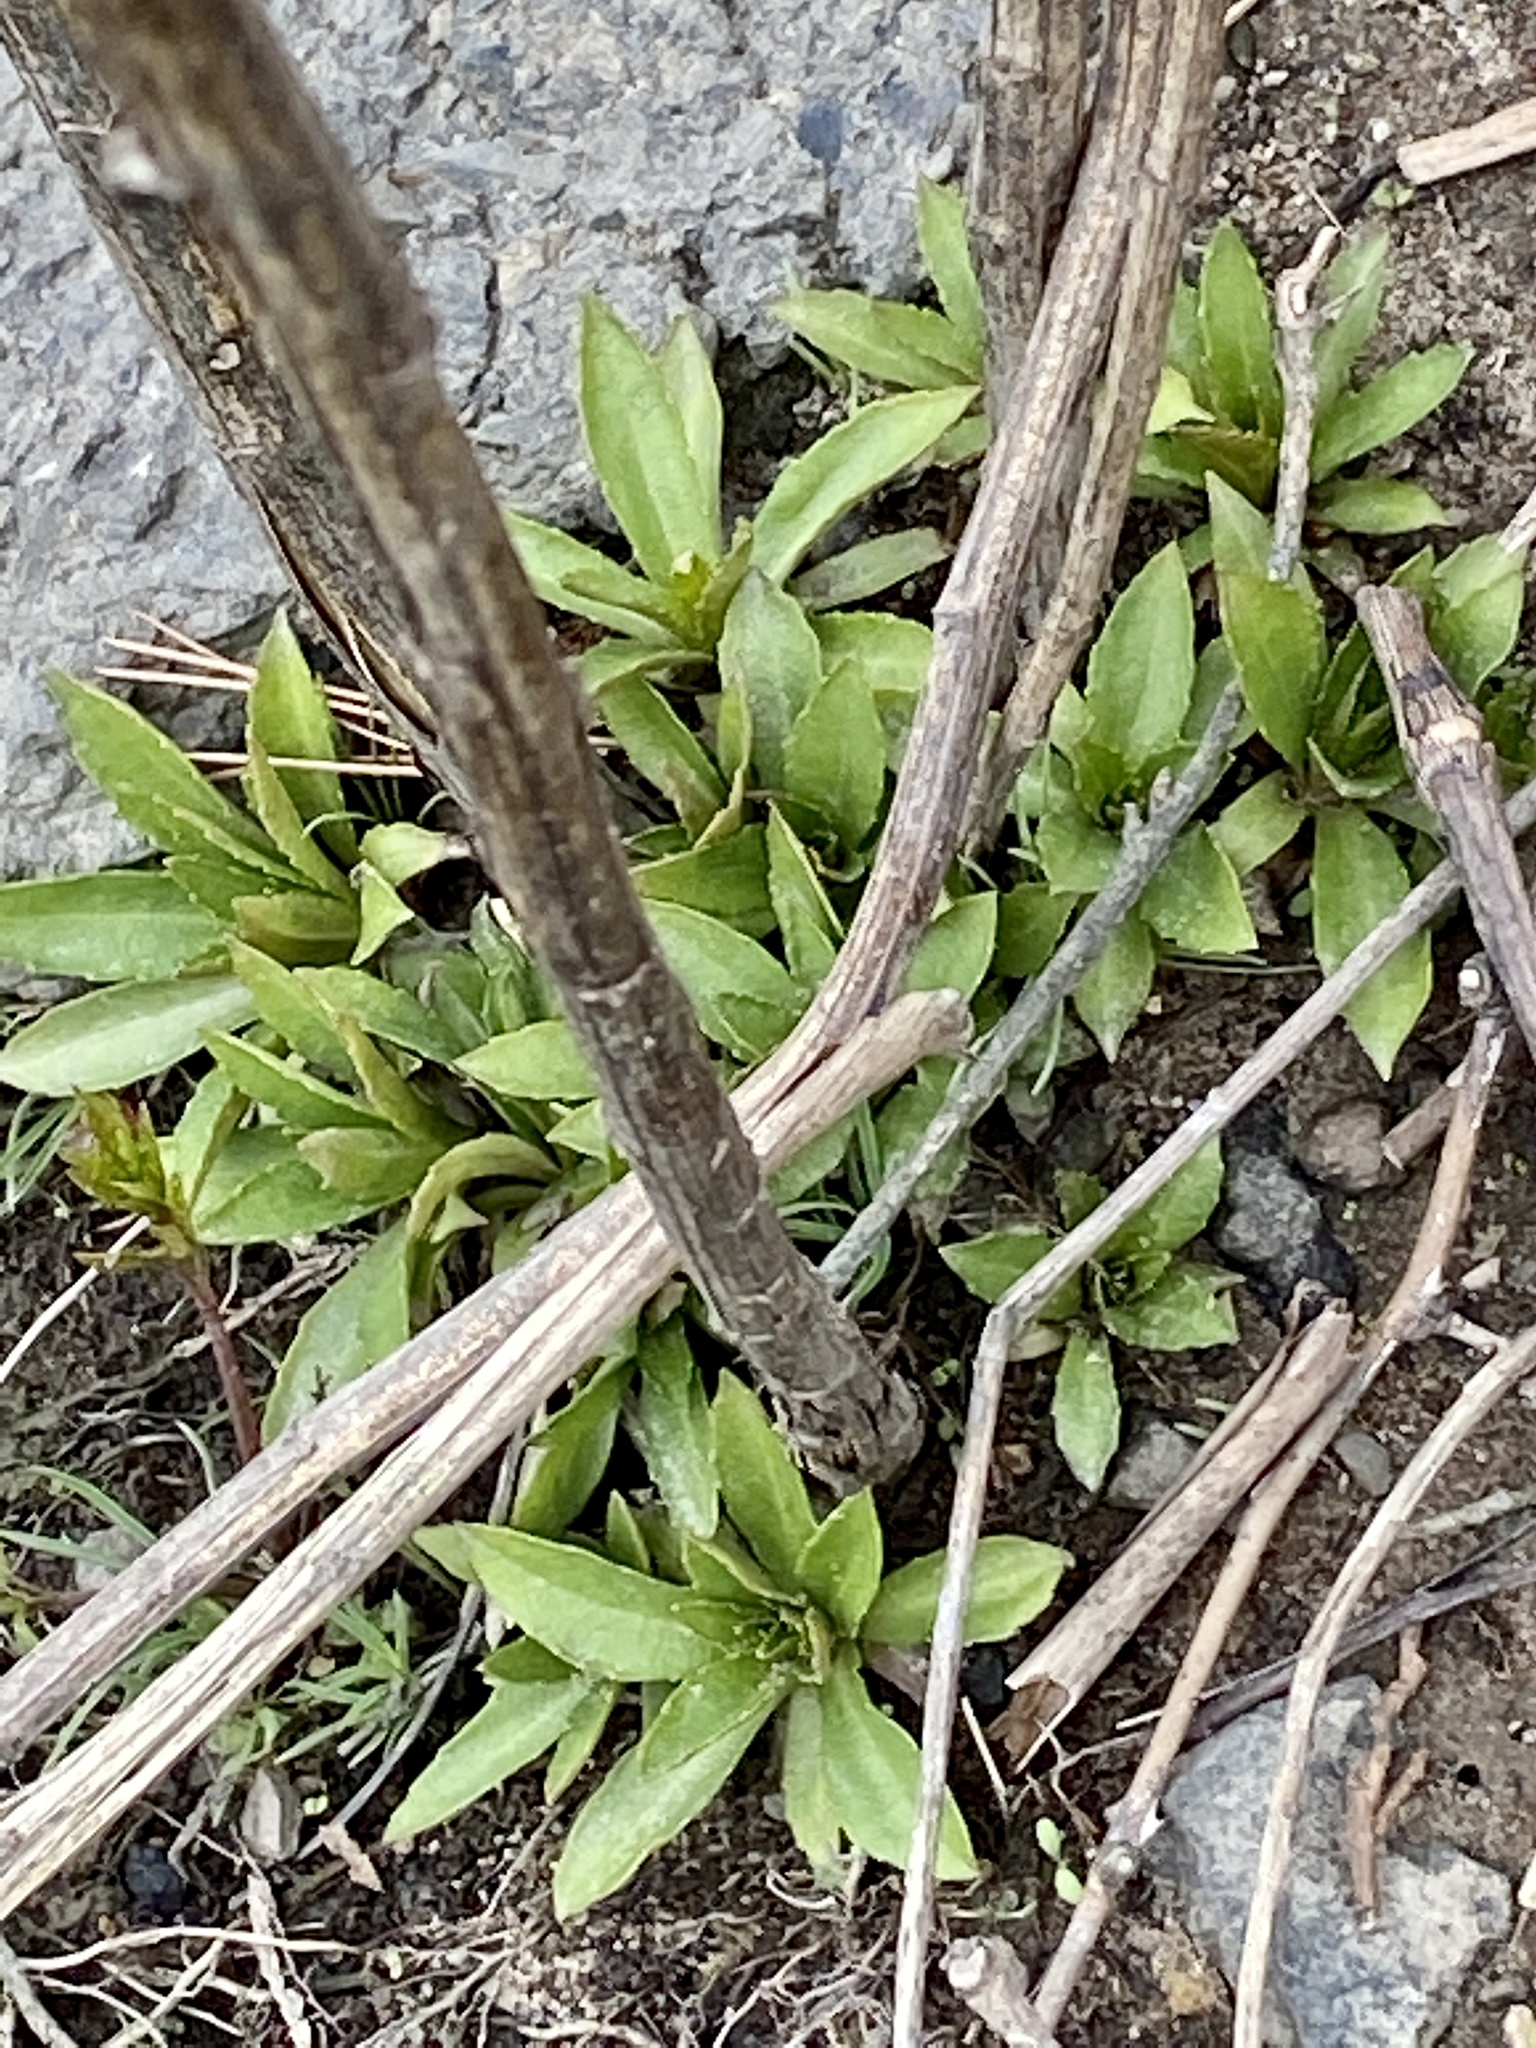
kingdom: Plantae
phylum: Tracheophyta
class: Magnoliopsida
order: Asterales
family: Asteraceae
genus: Helenium
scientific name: Helenium autumnale
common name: Sneezeweed
